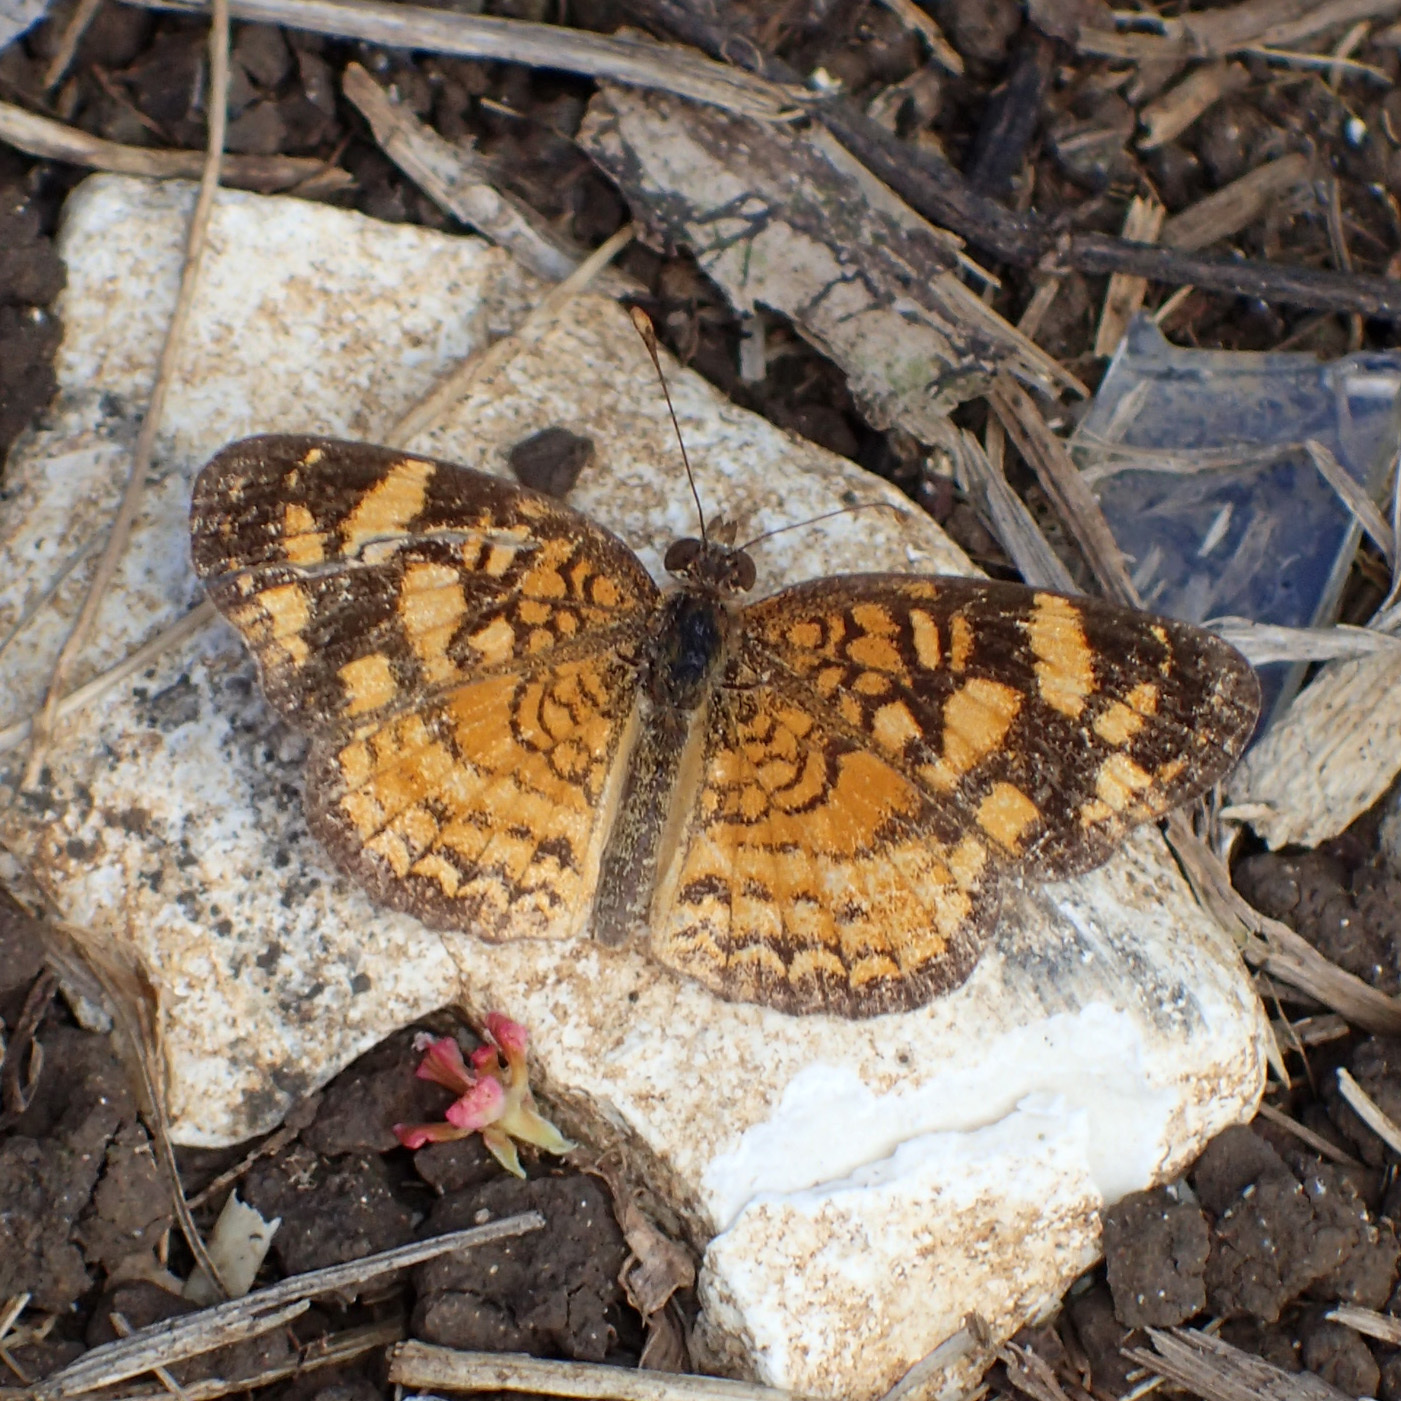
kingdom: Animalia
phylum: Arthropoda
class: Insecta
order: Lepidoptera
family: Nymphalidae
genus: Anthanassa
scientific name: Anthanassa frisia
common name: Cuban crescent
